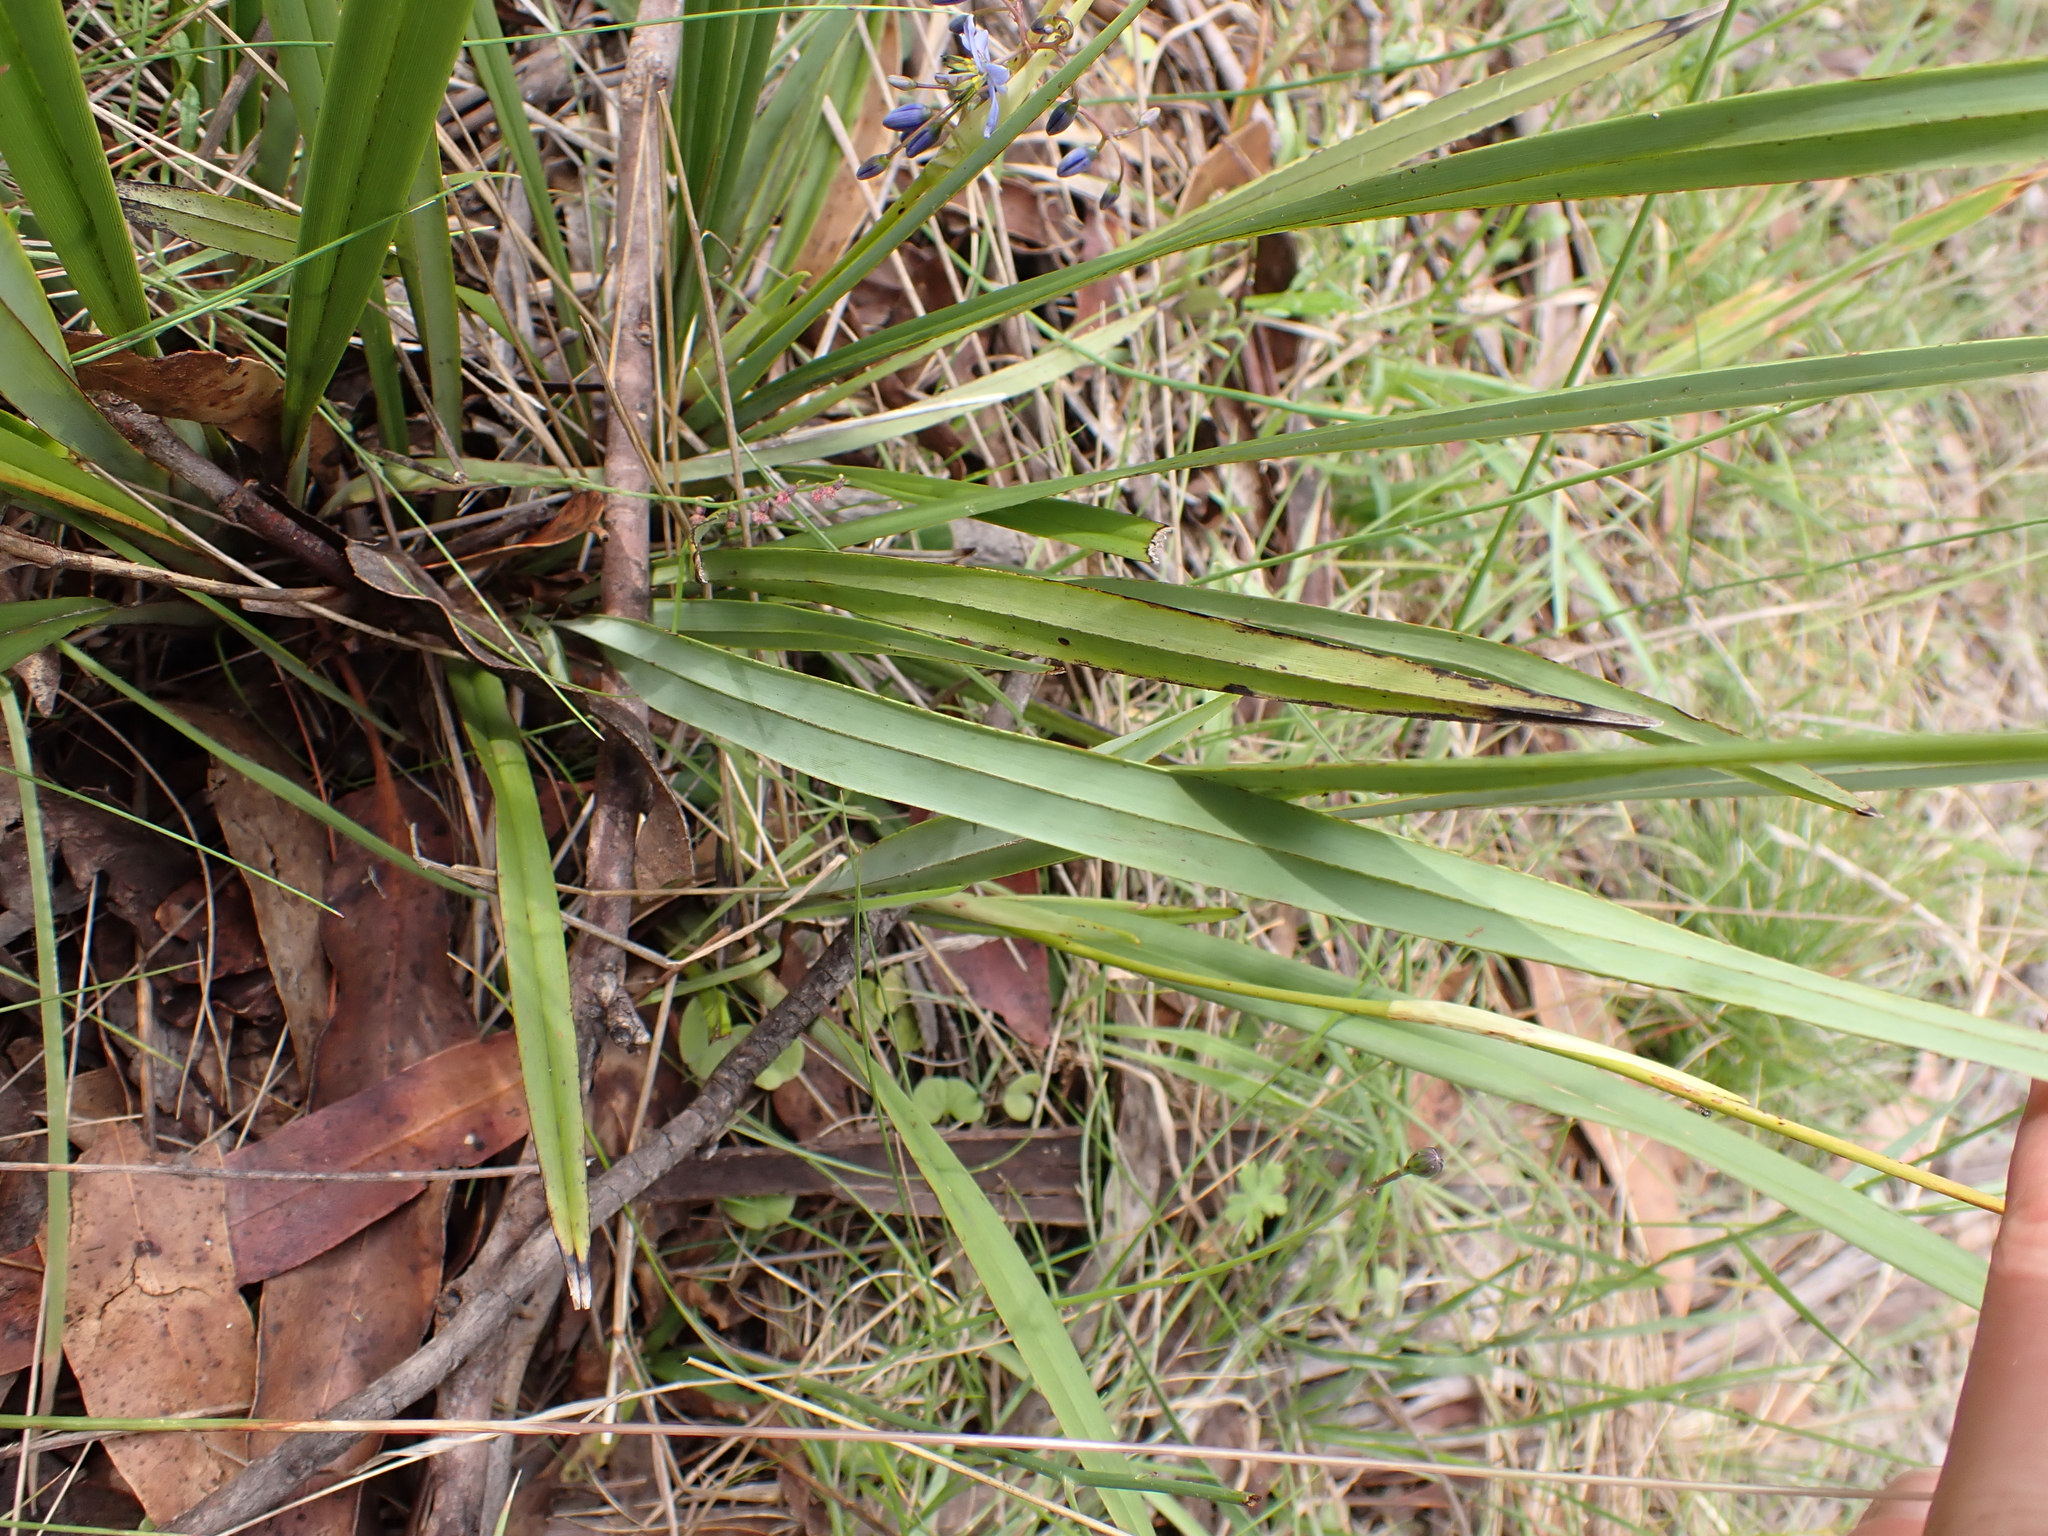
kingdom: Plantae
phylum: Tracheophyta
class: Liliopsida
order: Asparagales
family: Asphodelaceae
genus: Dianella
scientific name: Dianella revoluta
